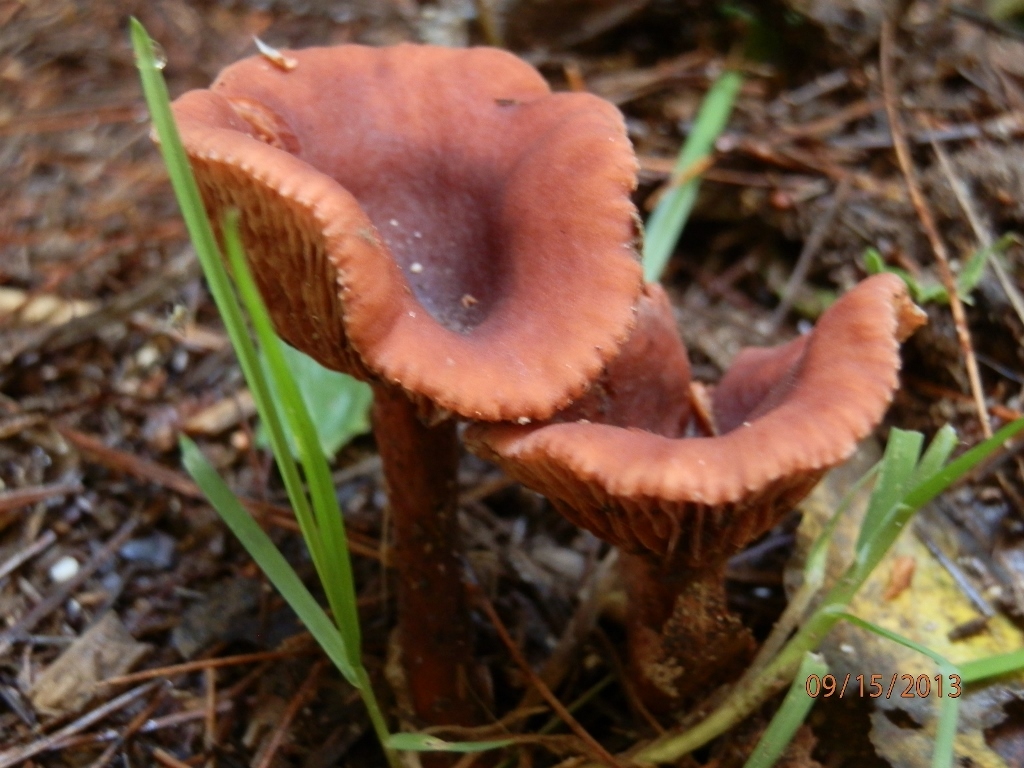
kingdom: Fungi
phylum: Basidiomycota
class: Agaricomycetes
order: Russulales
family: Russulaceae
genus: Lactarius
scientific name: Lactarius hepaticus
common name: Liver milkcap
